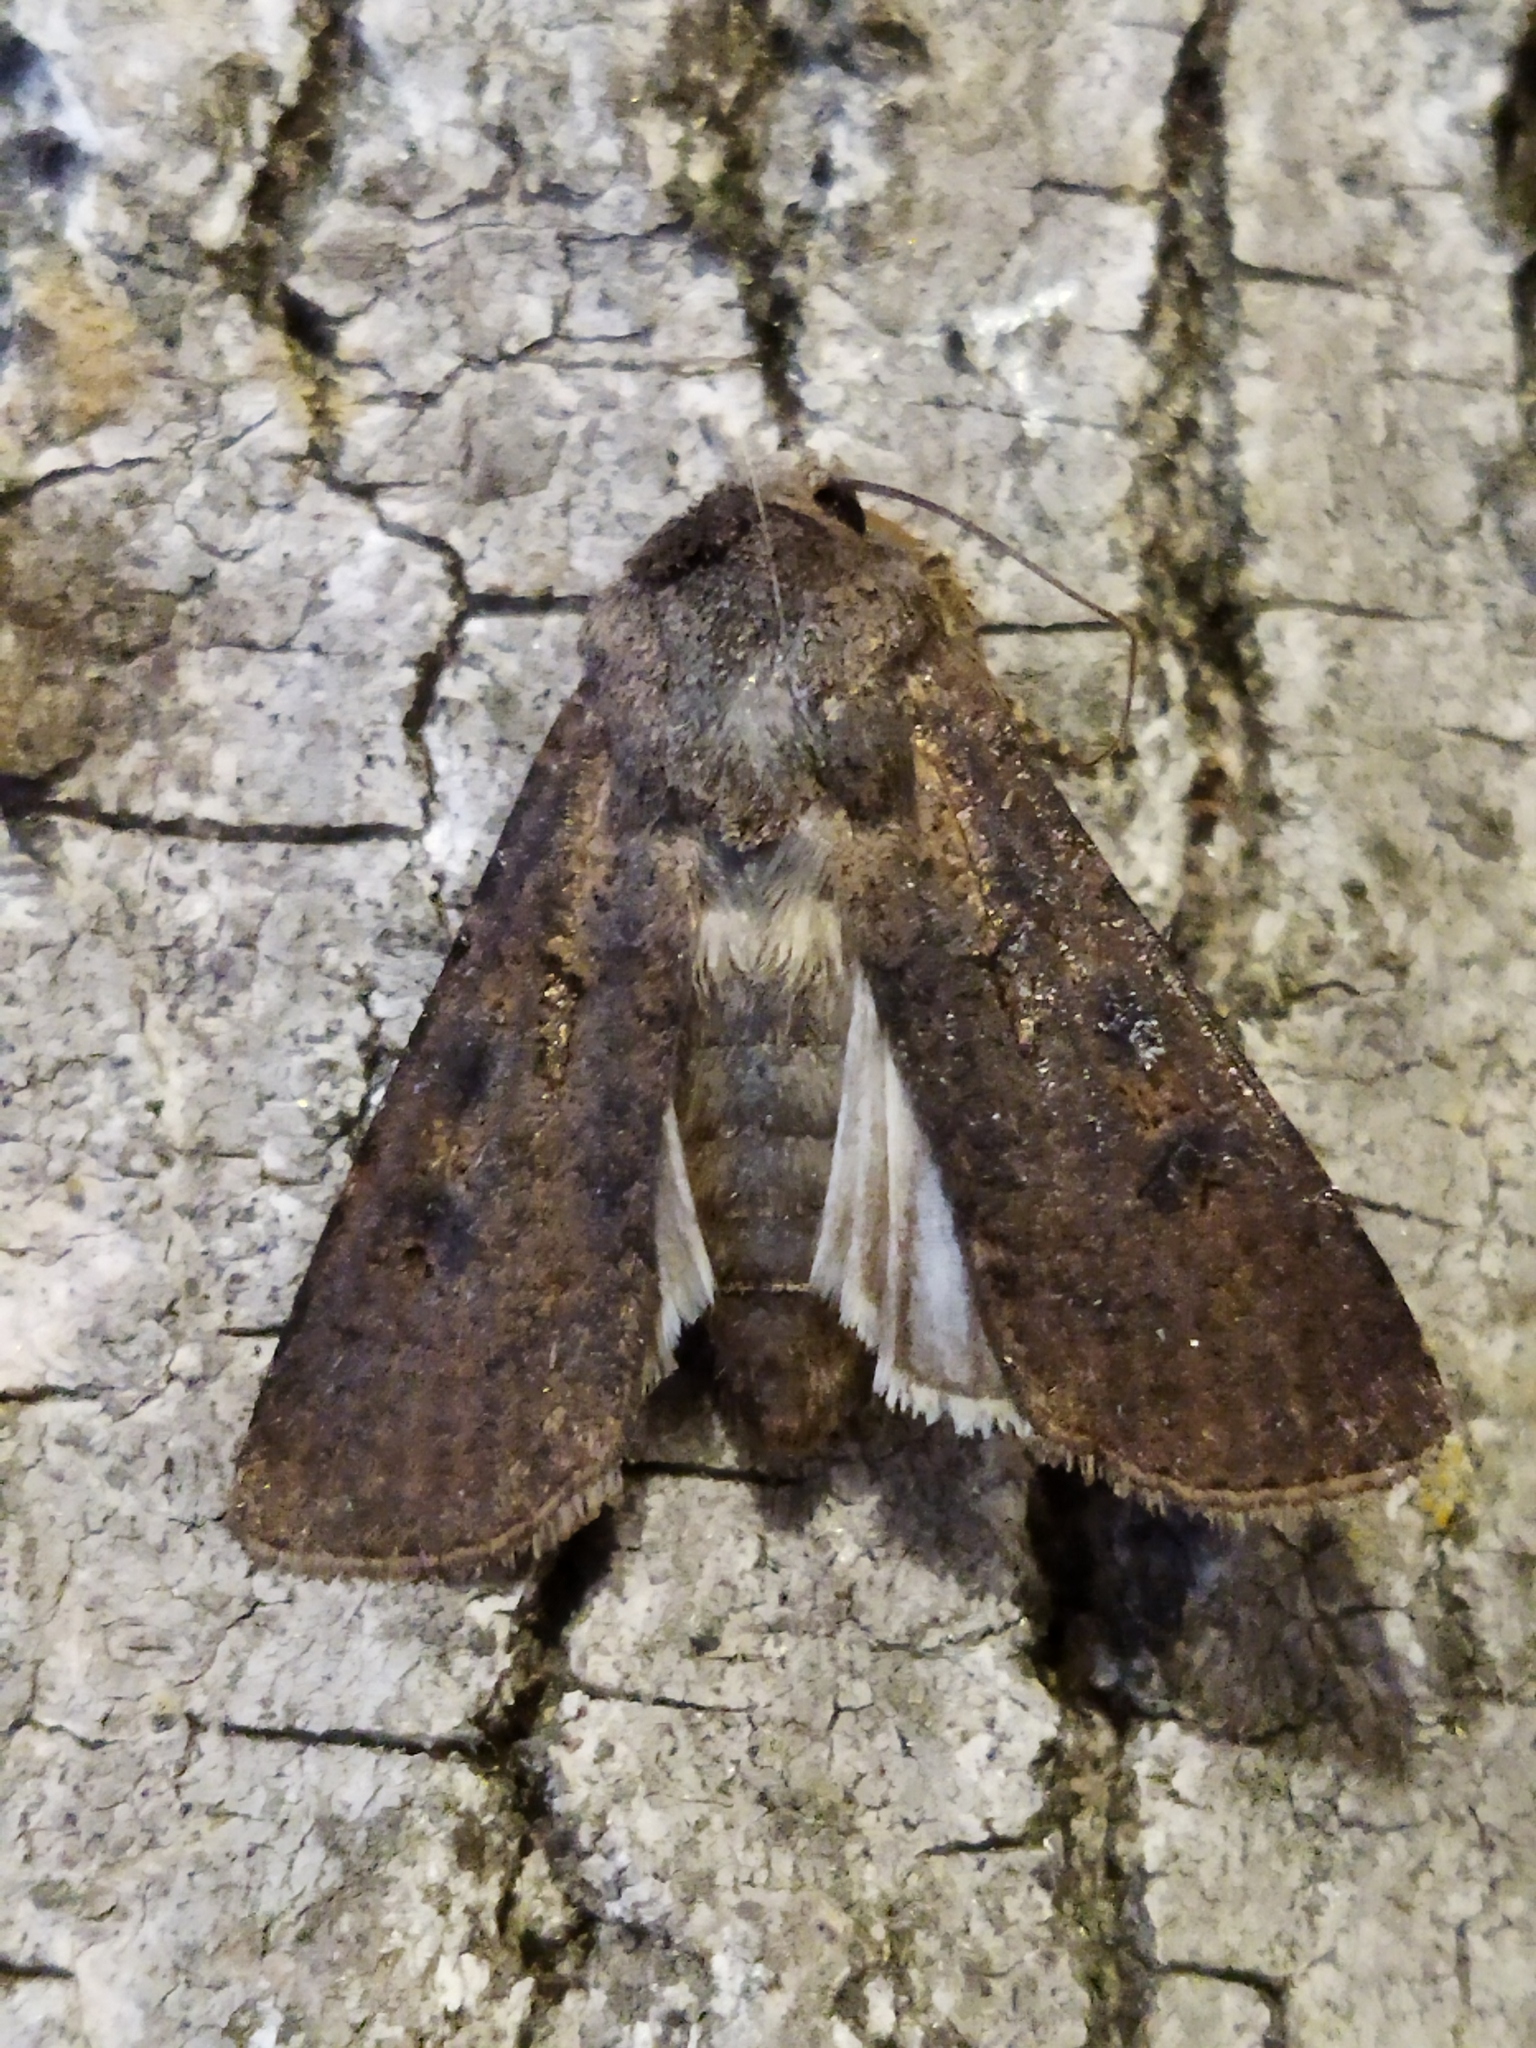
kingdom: Animalia
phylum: Arthropoda
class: Insecta
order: Lepidoptera
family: Noctuidae
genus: Agrotis
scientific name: Agrotis segetum
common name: Turnip moth
